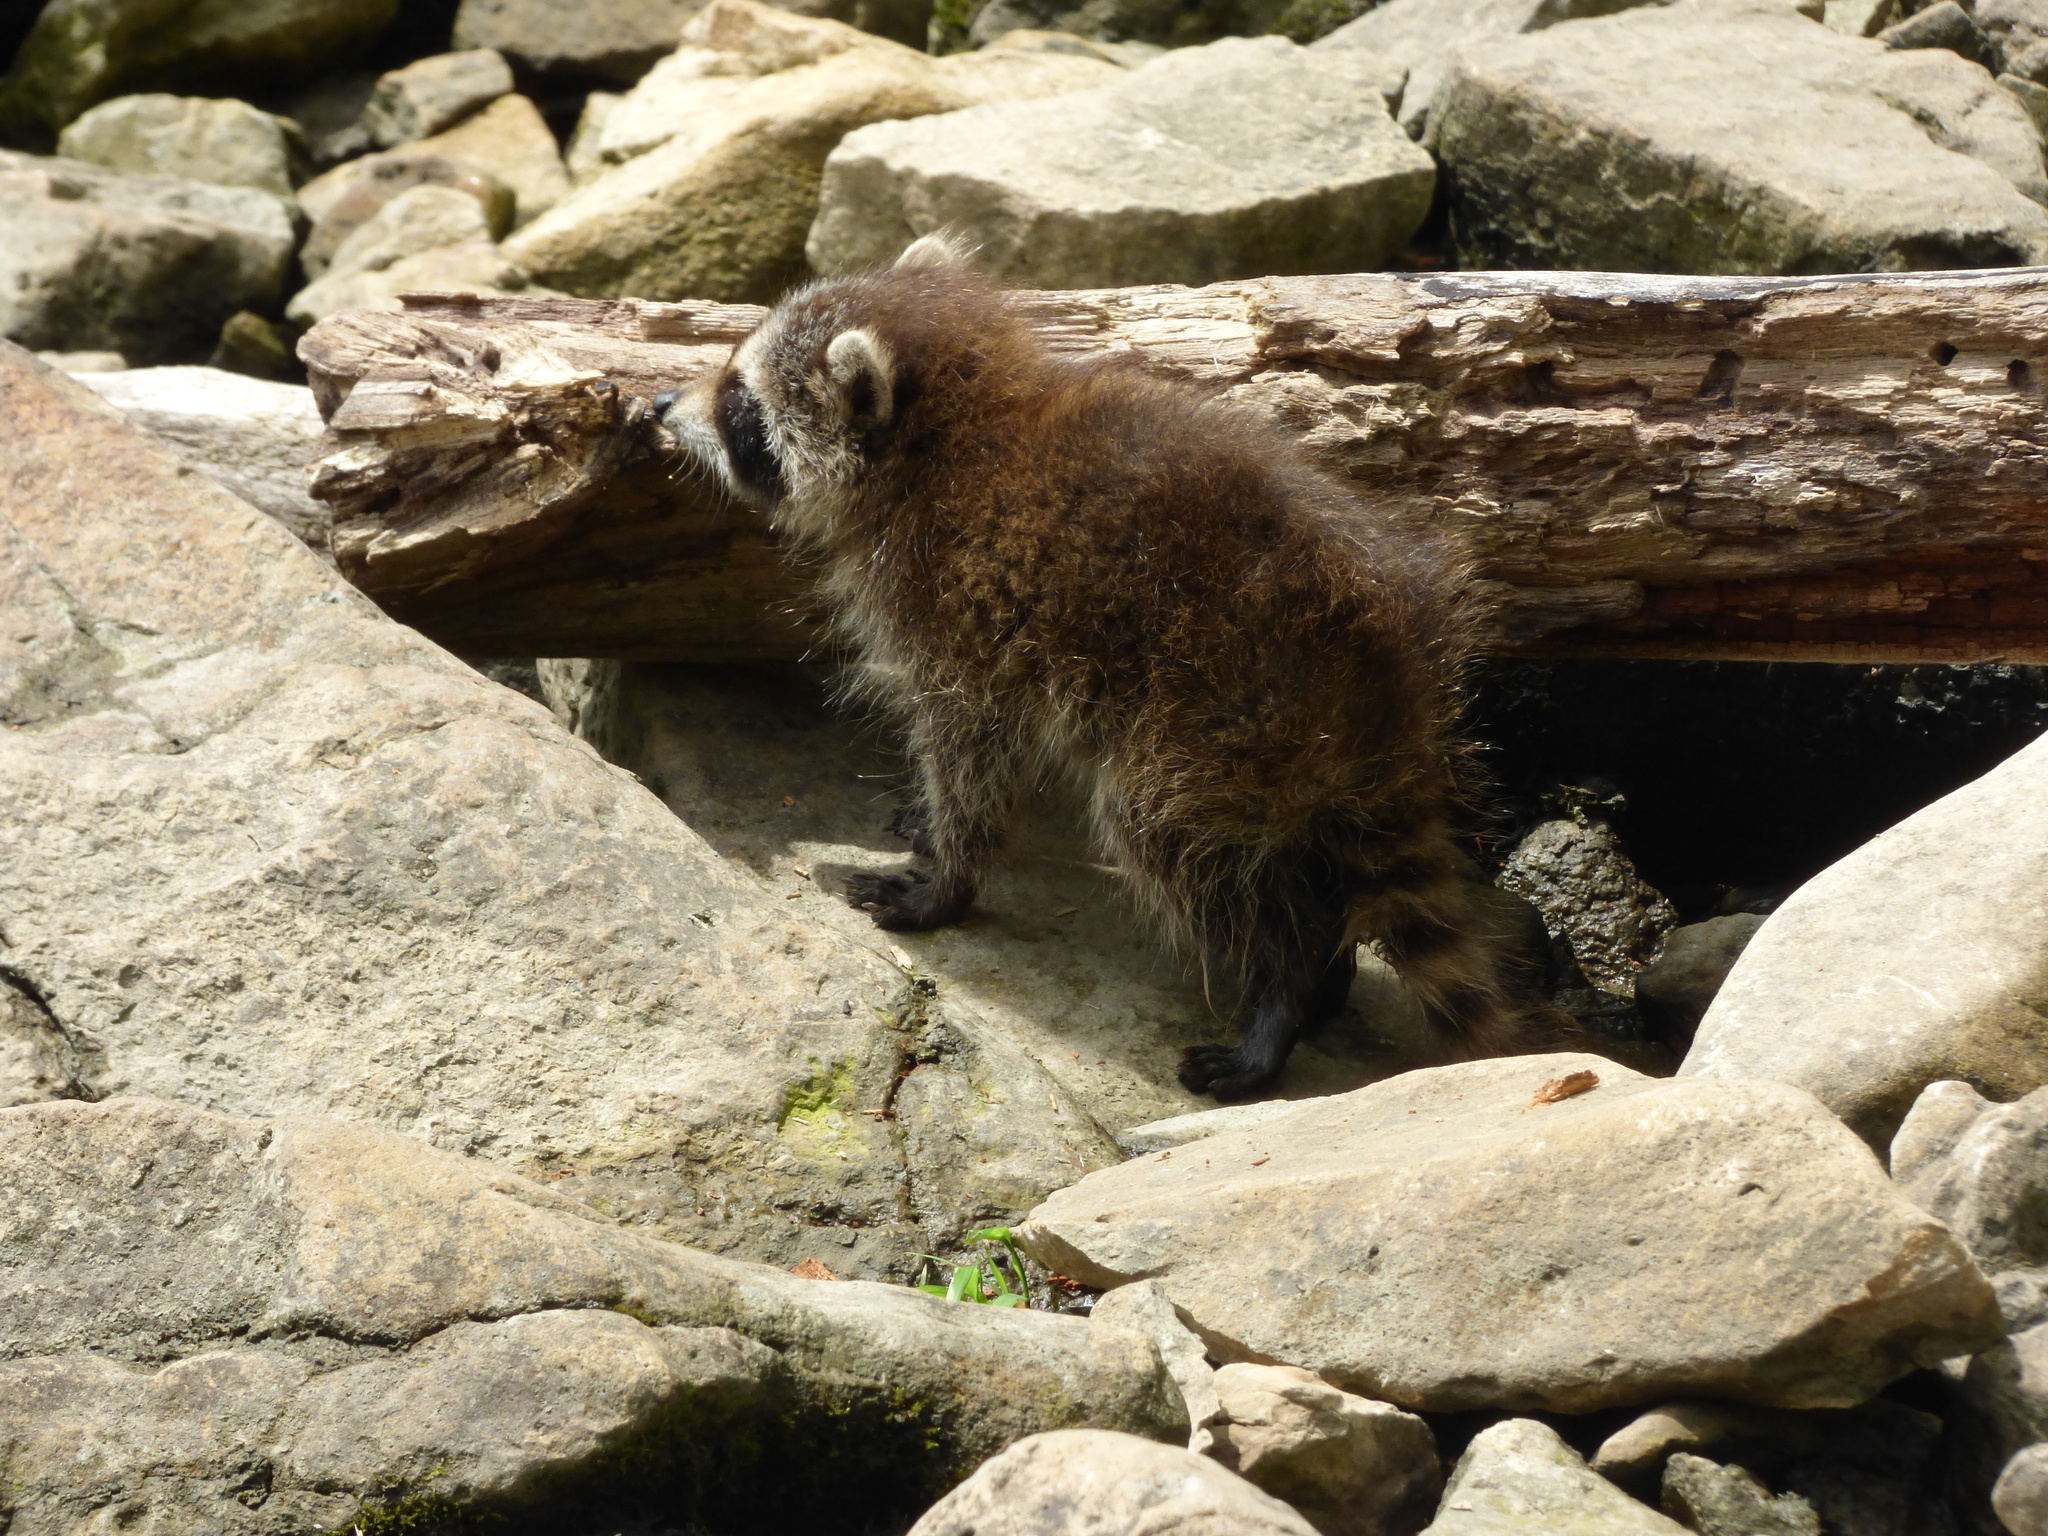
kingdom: Animalia
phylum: Chordata
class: Mammalia
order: Carnivora
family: Procyonidae
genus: Procyon
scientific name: Procyon lotor
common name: Raccoon
